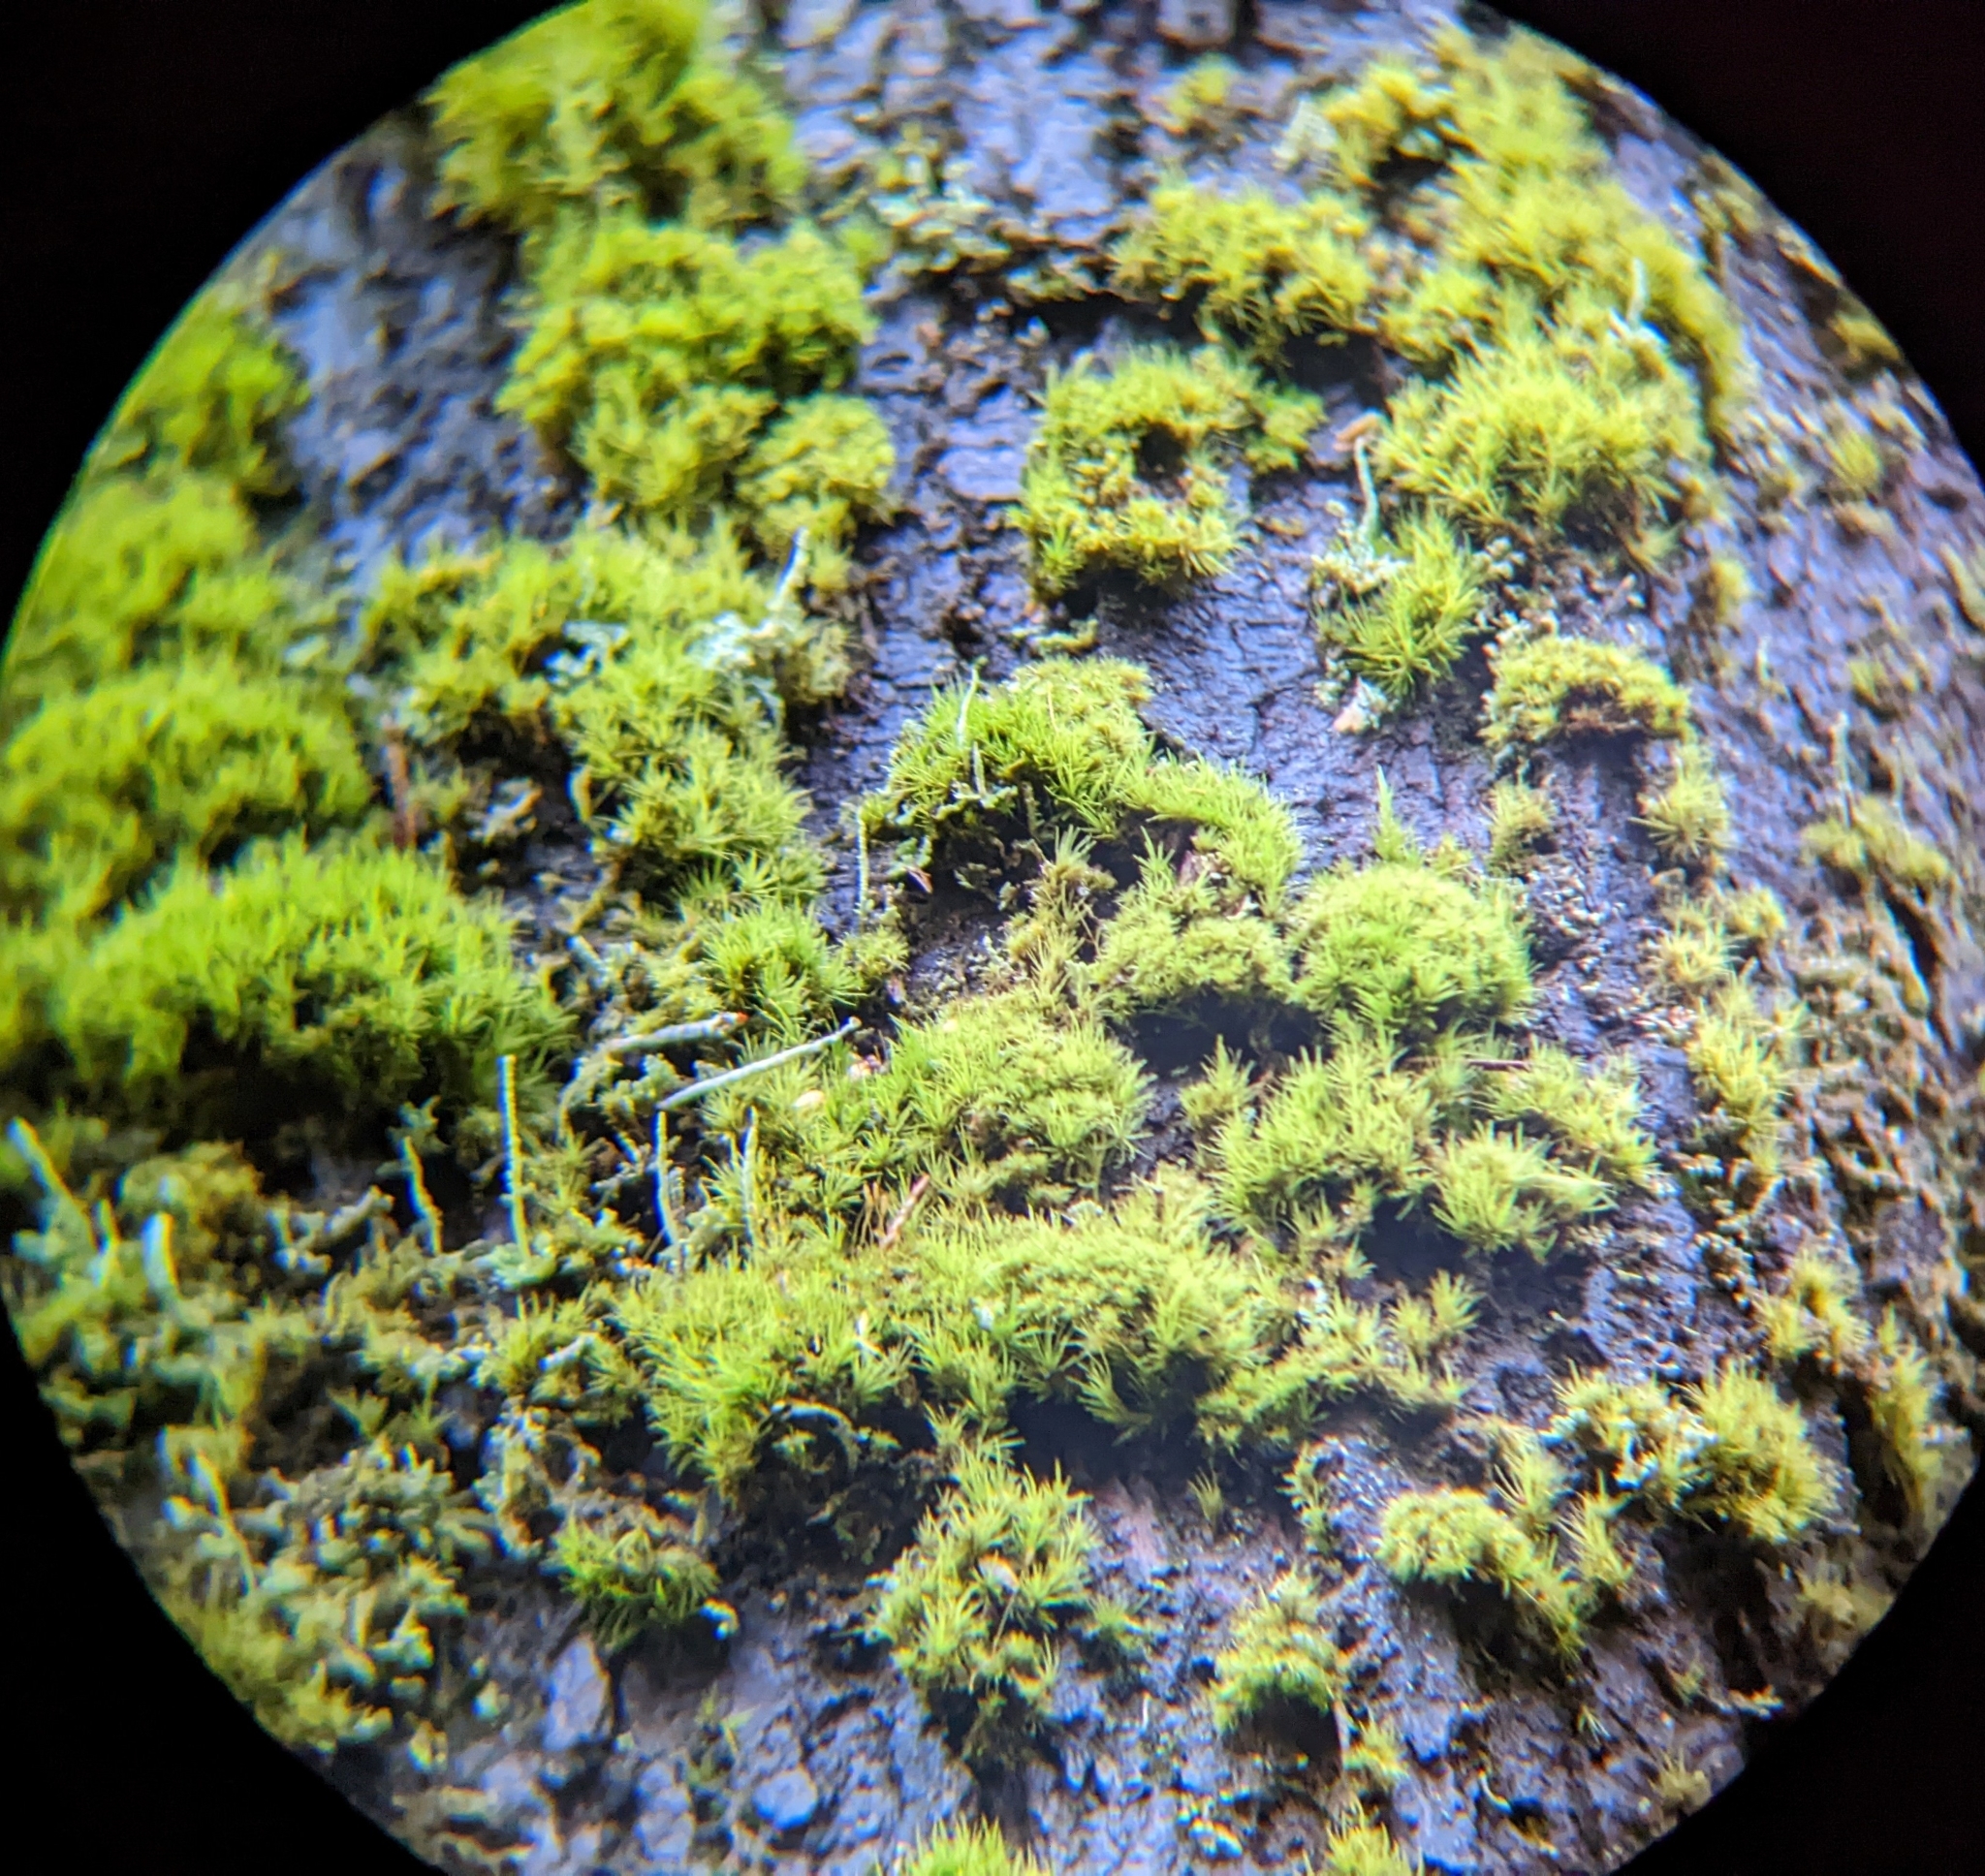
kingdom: Plantae
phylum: Bryophyta
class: Bryopsida
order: Dicranales
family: Dicranaceae
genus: Orthodicranum
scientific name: Orthodicranum tauricum
